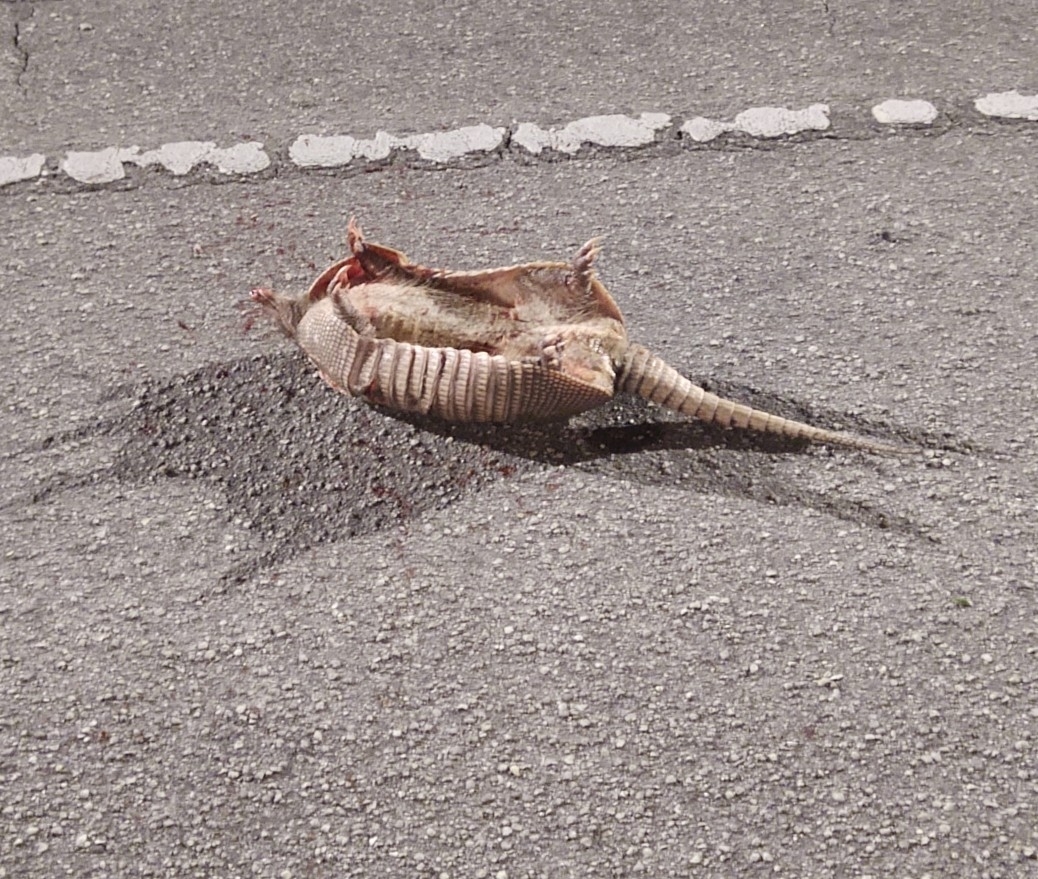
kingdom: Animalia
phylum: Chordata
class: Mammalia
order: Cingulata
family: Dasypodidae
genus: Dasypus
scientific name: Dasypus novemcinctus
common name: Nine-banded armadillo
